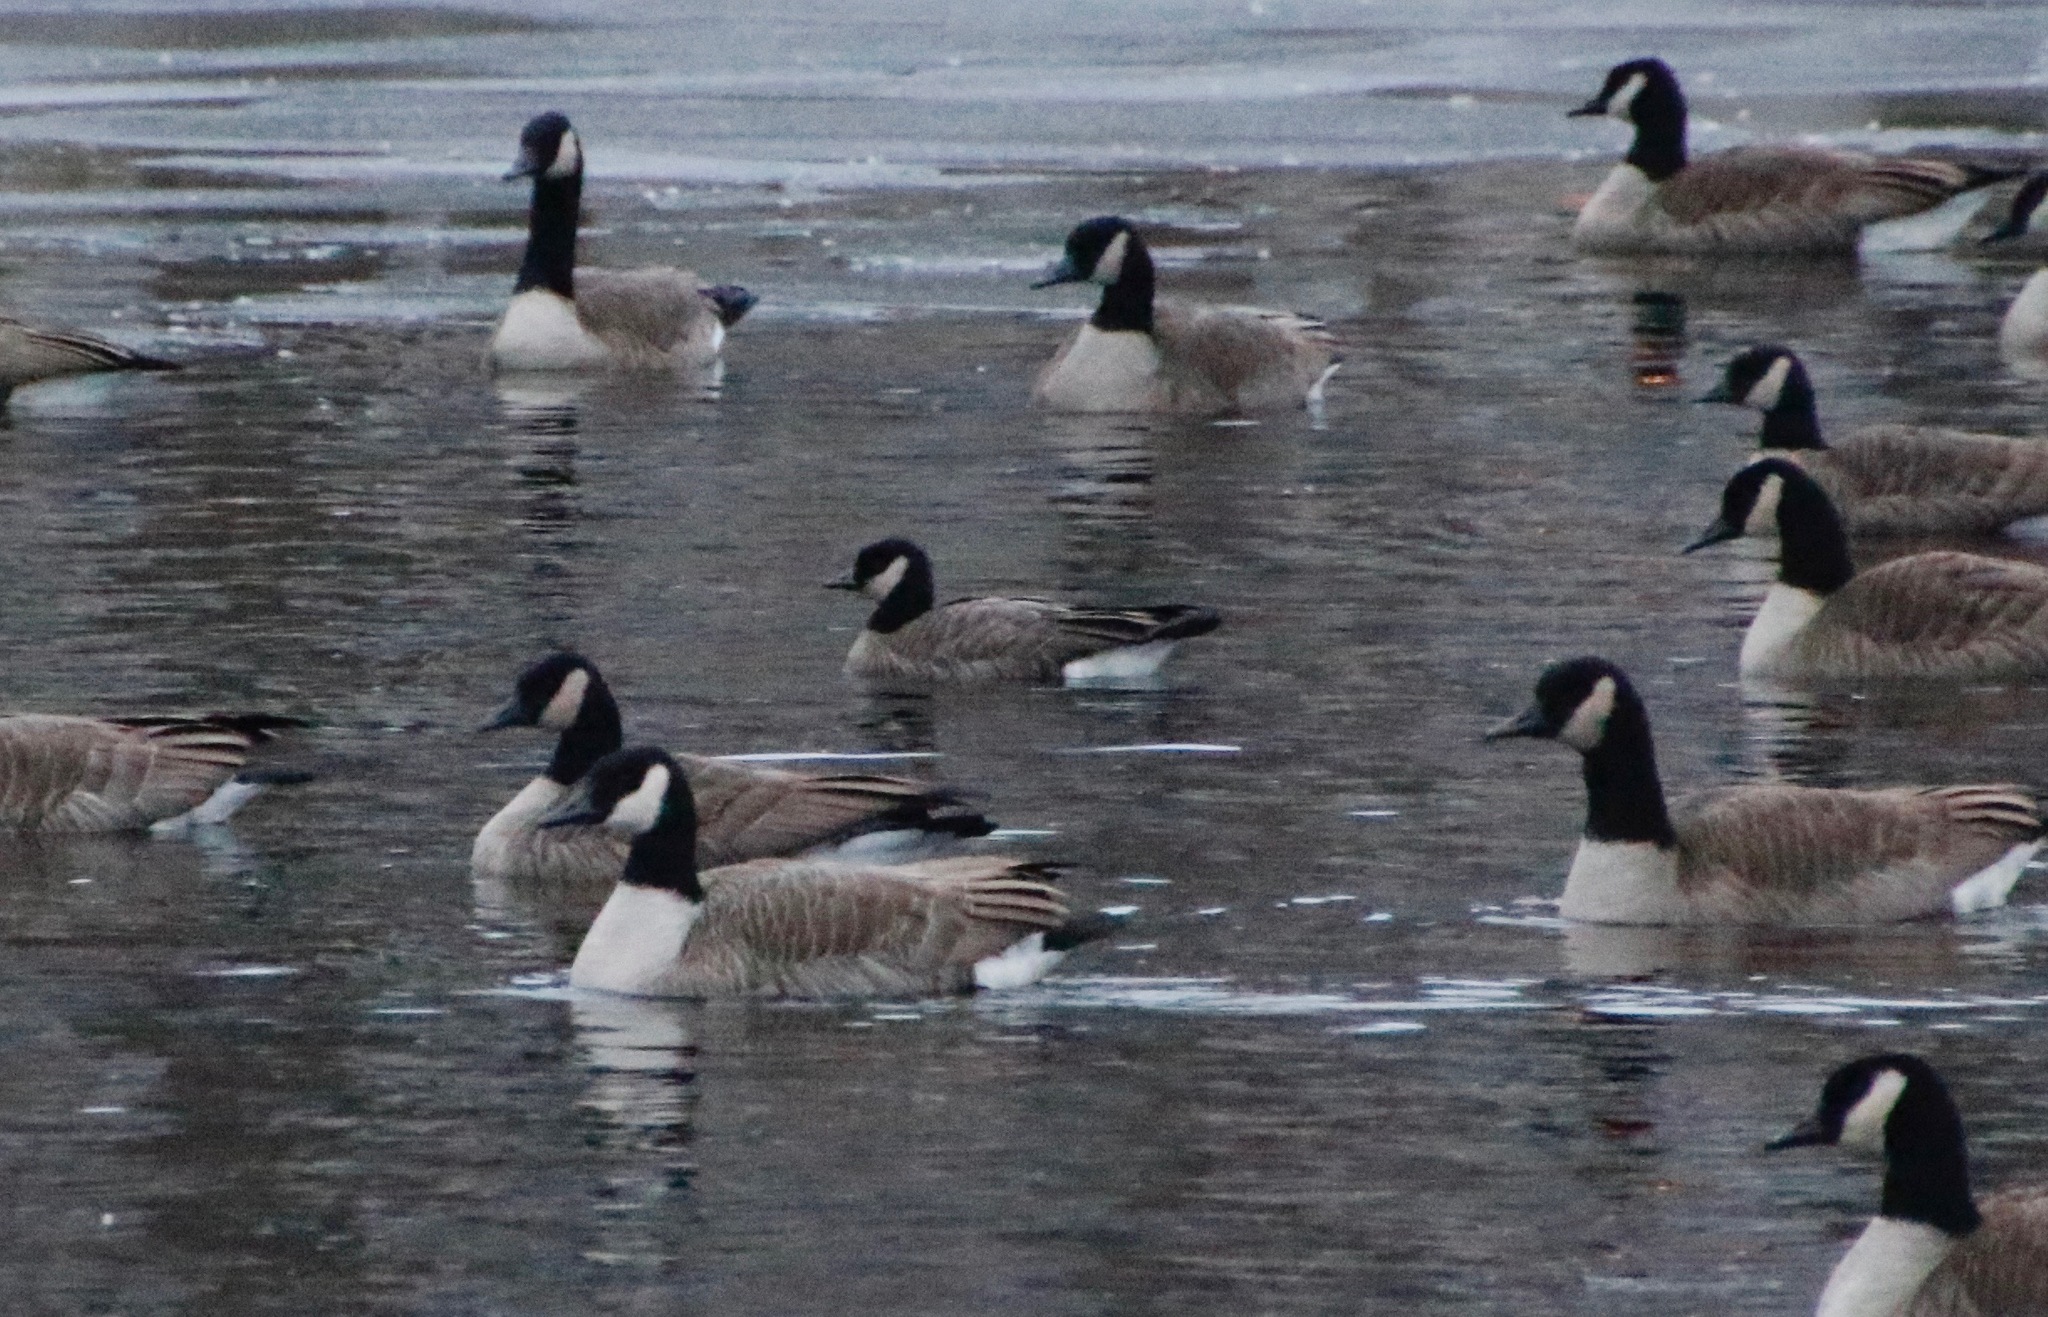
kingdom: Animalia
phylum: Chordata
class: Aves
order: Anseriformes
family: Anatidae
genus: Branta
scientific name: Branta hutchinsii
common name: Cackling goose
